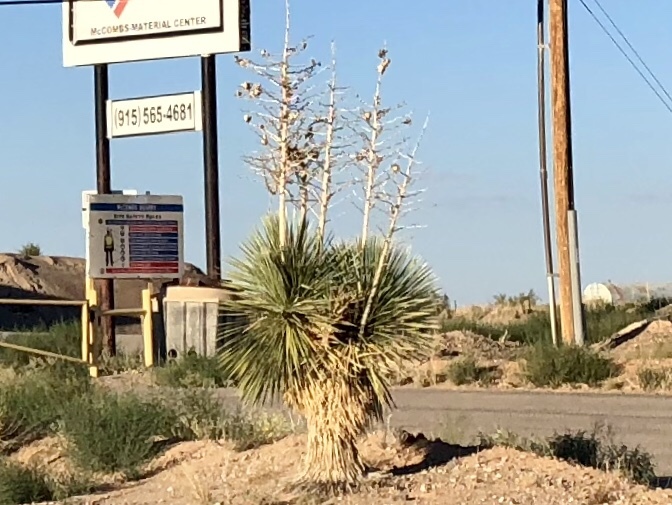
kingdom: Plantae
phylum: Tracheophyta
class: Liliopsida
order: Asparagales
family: Asparagaceae
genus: Yucca
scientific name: Yucca elata
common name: Palmella
